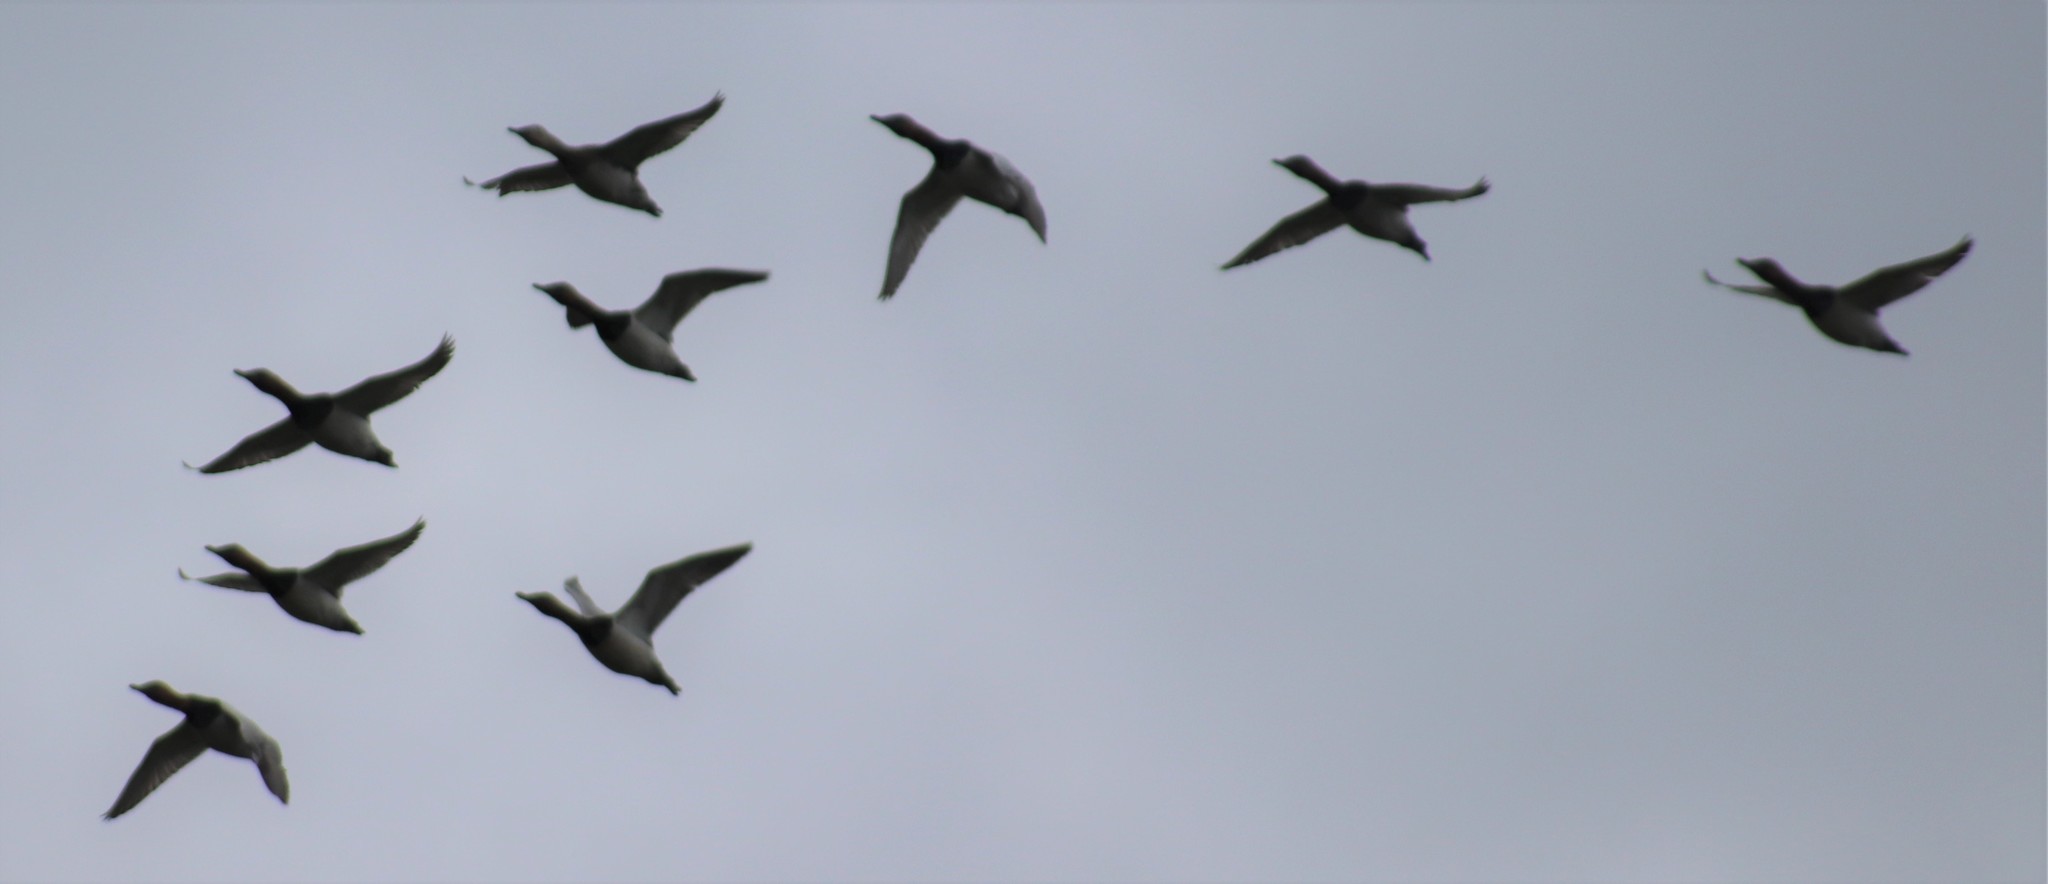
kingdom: Animalia
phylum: Chordata
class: Aves
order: Anseriformes
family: Anatidae
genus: Aythya
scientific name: Aythya valisineria
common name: Canvasback
